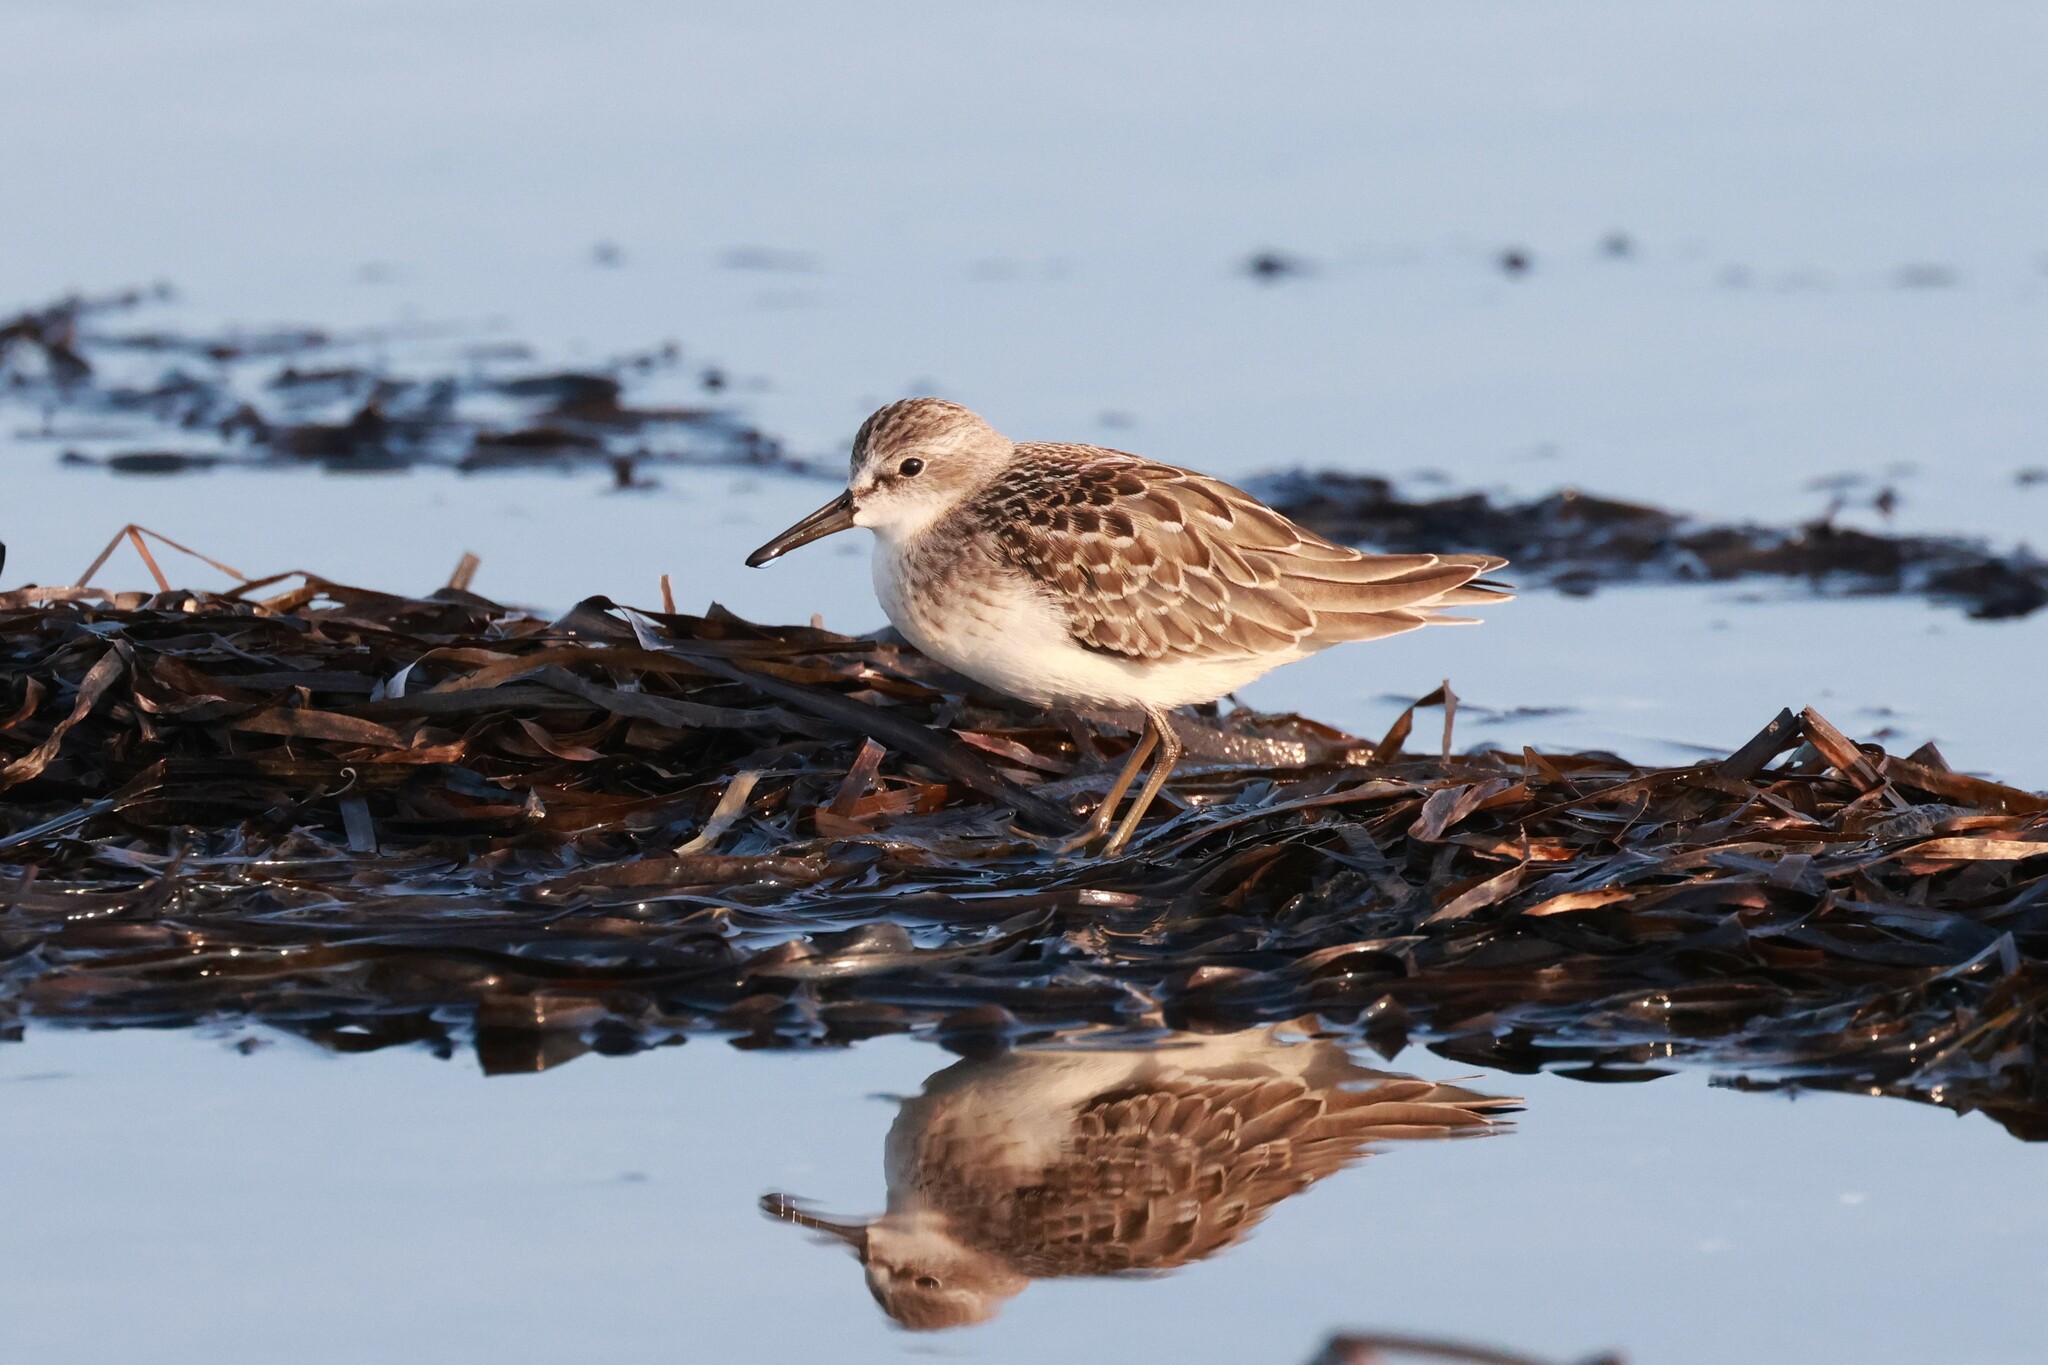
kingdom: Animalia
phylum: Chordata
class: Aves
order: Charadriiformes
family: Scolopacidae
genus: Calidris
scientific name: Calidris minutilla
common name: Least sandpiper
